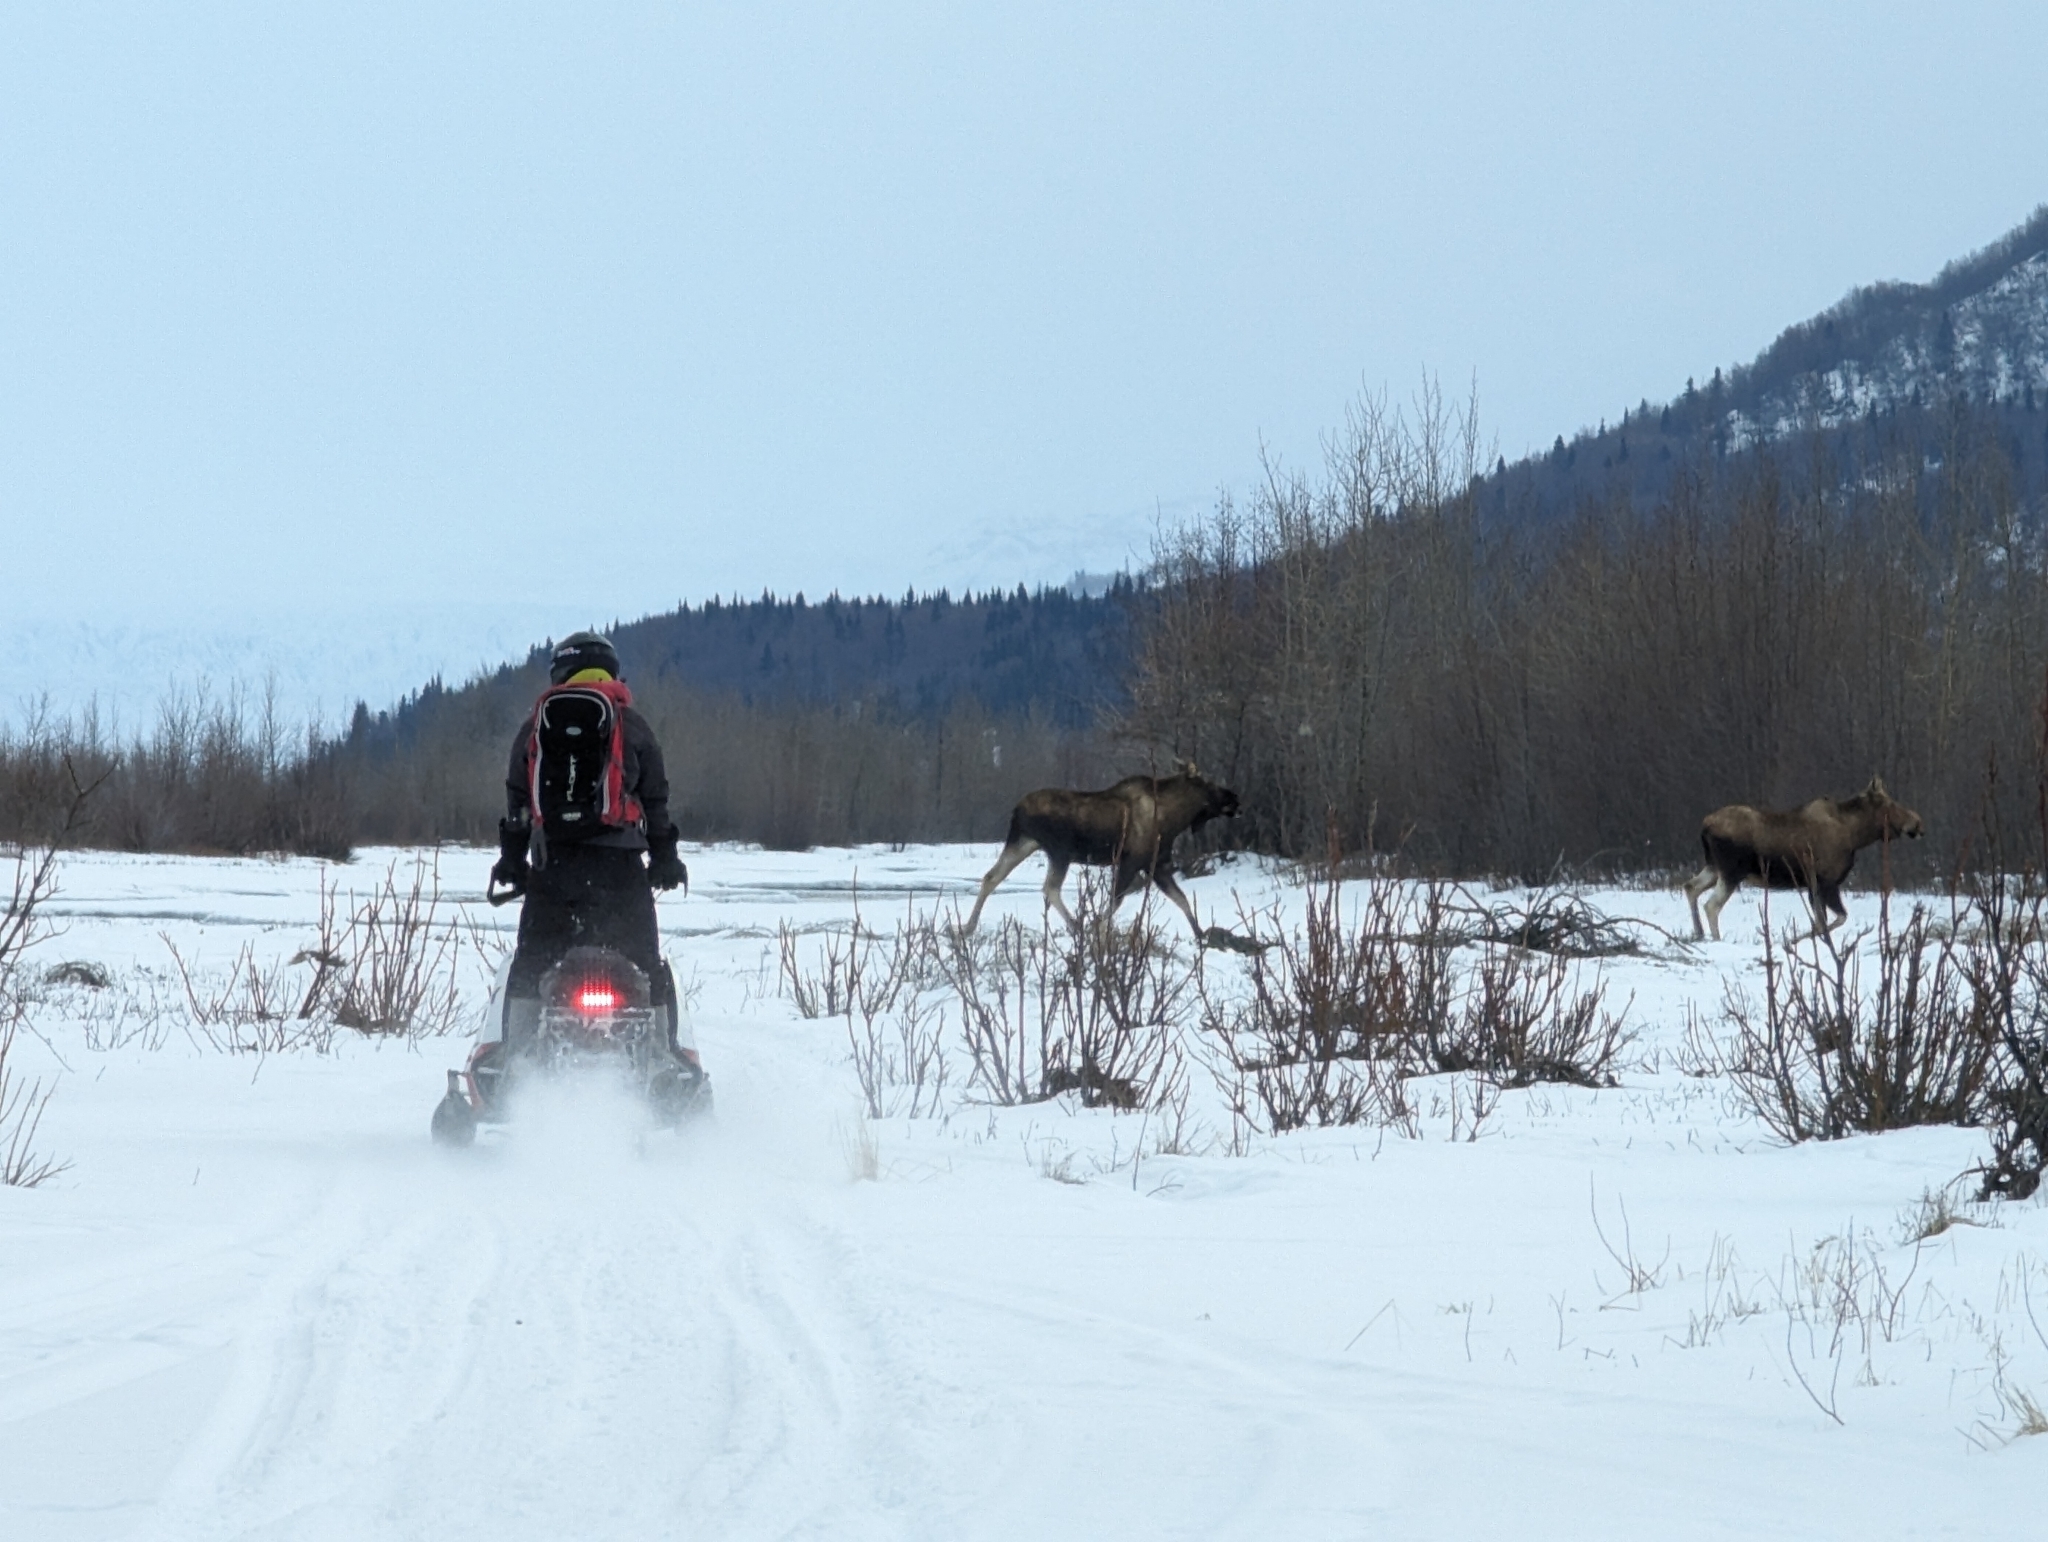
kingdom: Animalia
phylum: Chordata
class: Mammalia
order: Artiodactyla
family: Cervidae
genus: Alces
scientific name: Alces alces
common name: Moose
